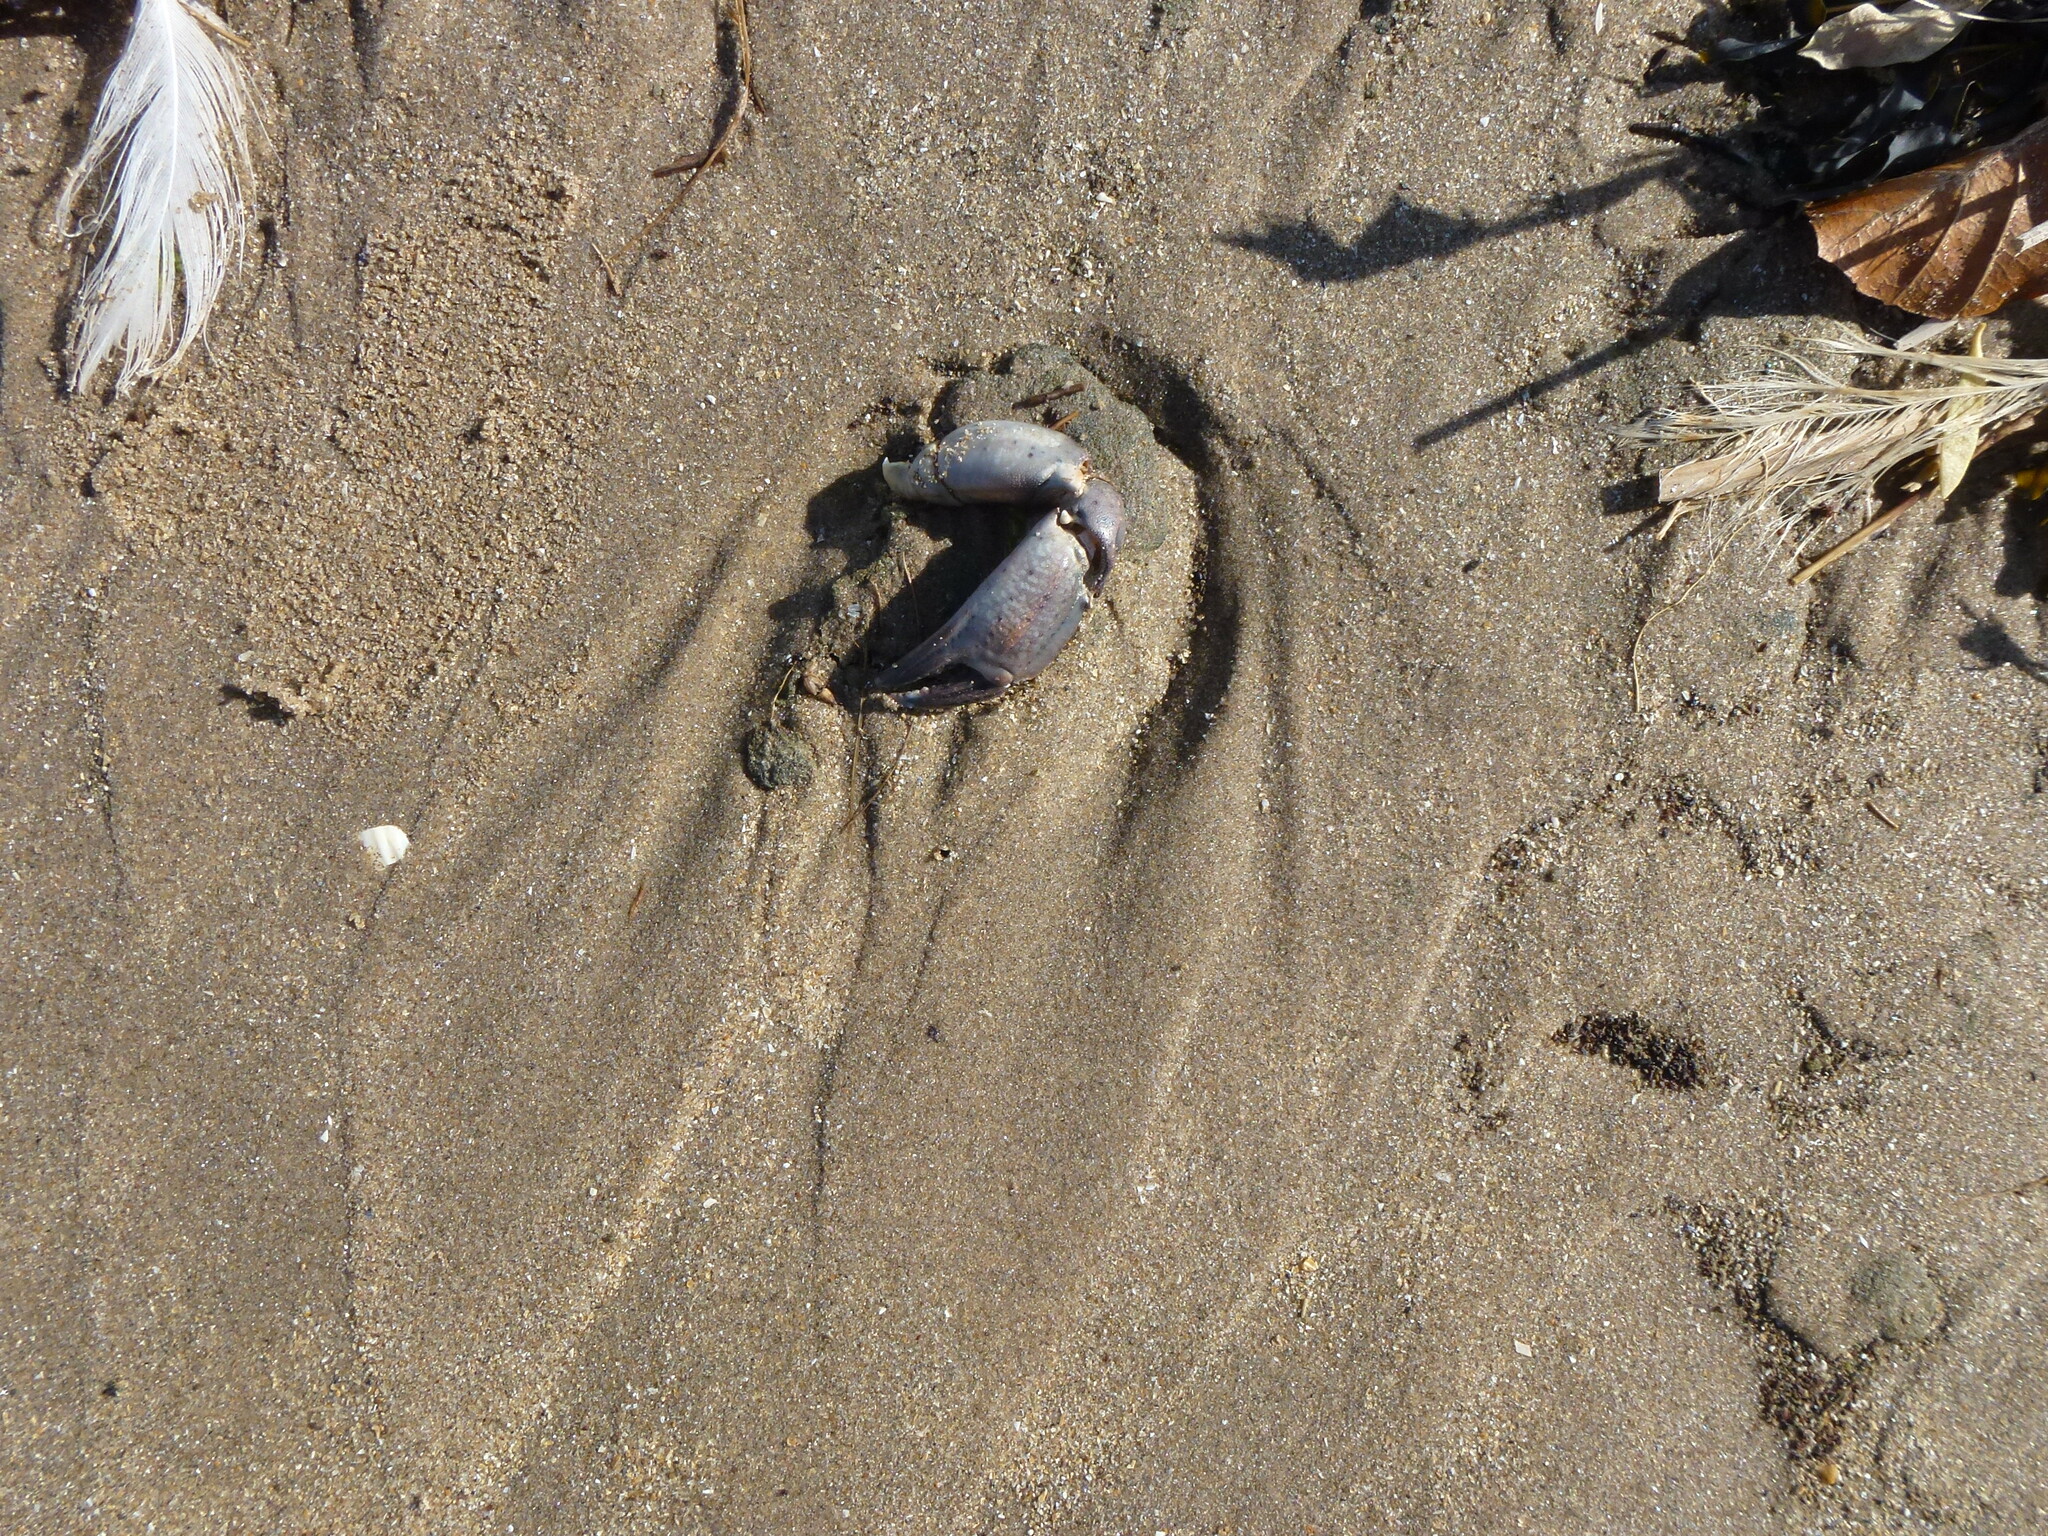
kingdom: Animalia
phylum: Arthropoda
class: Malacostraca
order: Decapoda
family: Carcinidae
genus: Carcinus
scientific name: Carcinus maenas
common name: European green crab
